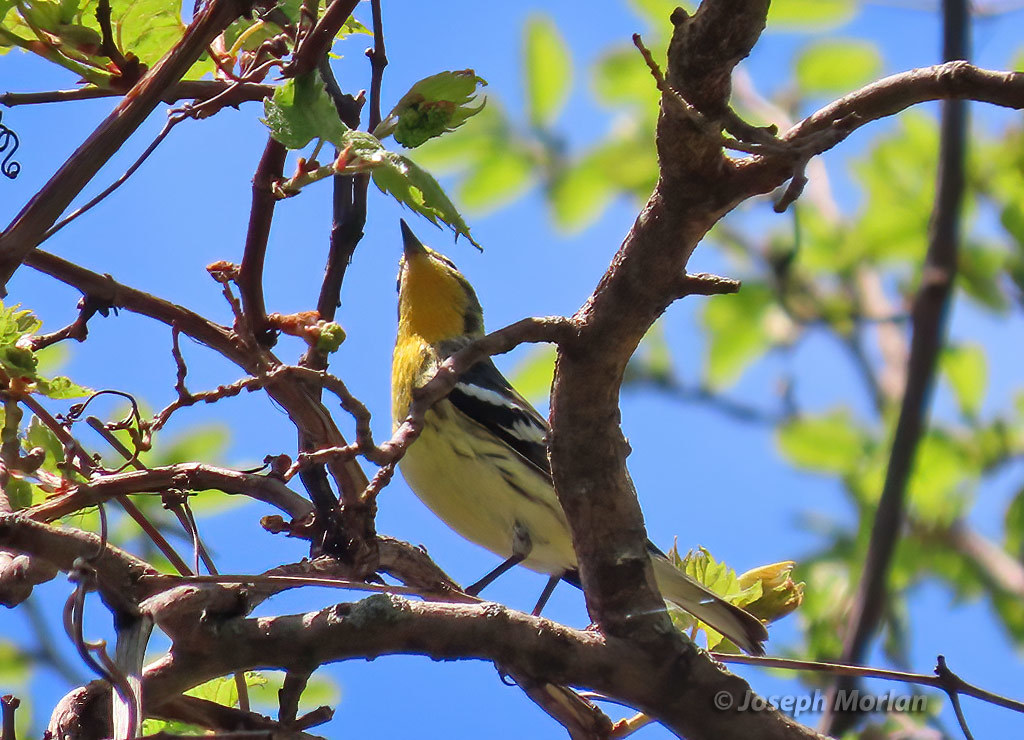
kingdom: Animalia
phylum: Chordata
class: Aves
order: Passeriformes
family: Parulidae
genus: Setophaga
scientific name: Setophaga fusca
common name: Blackburnian warbler
